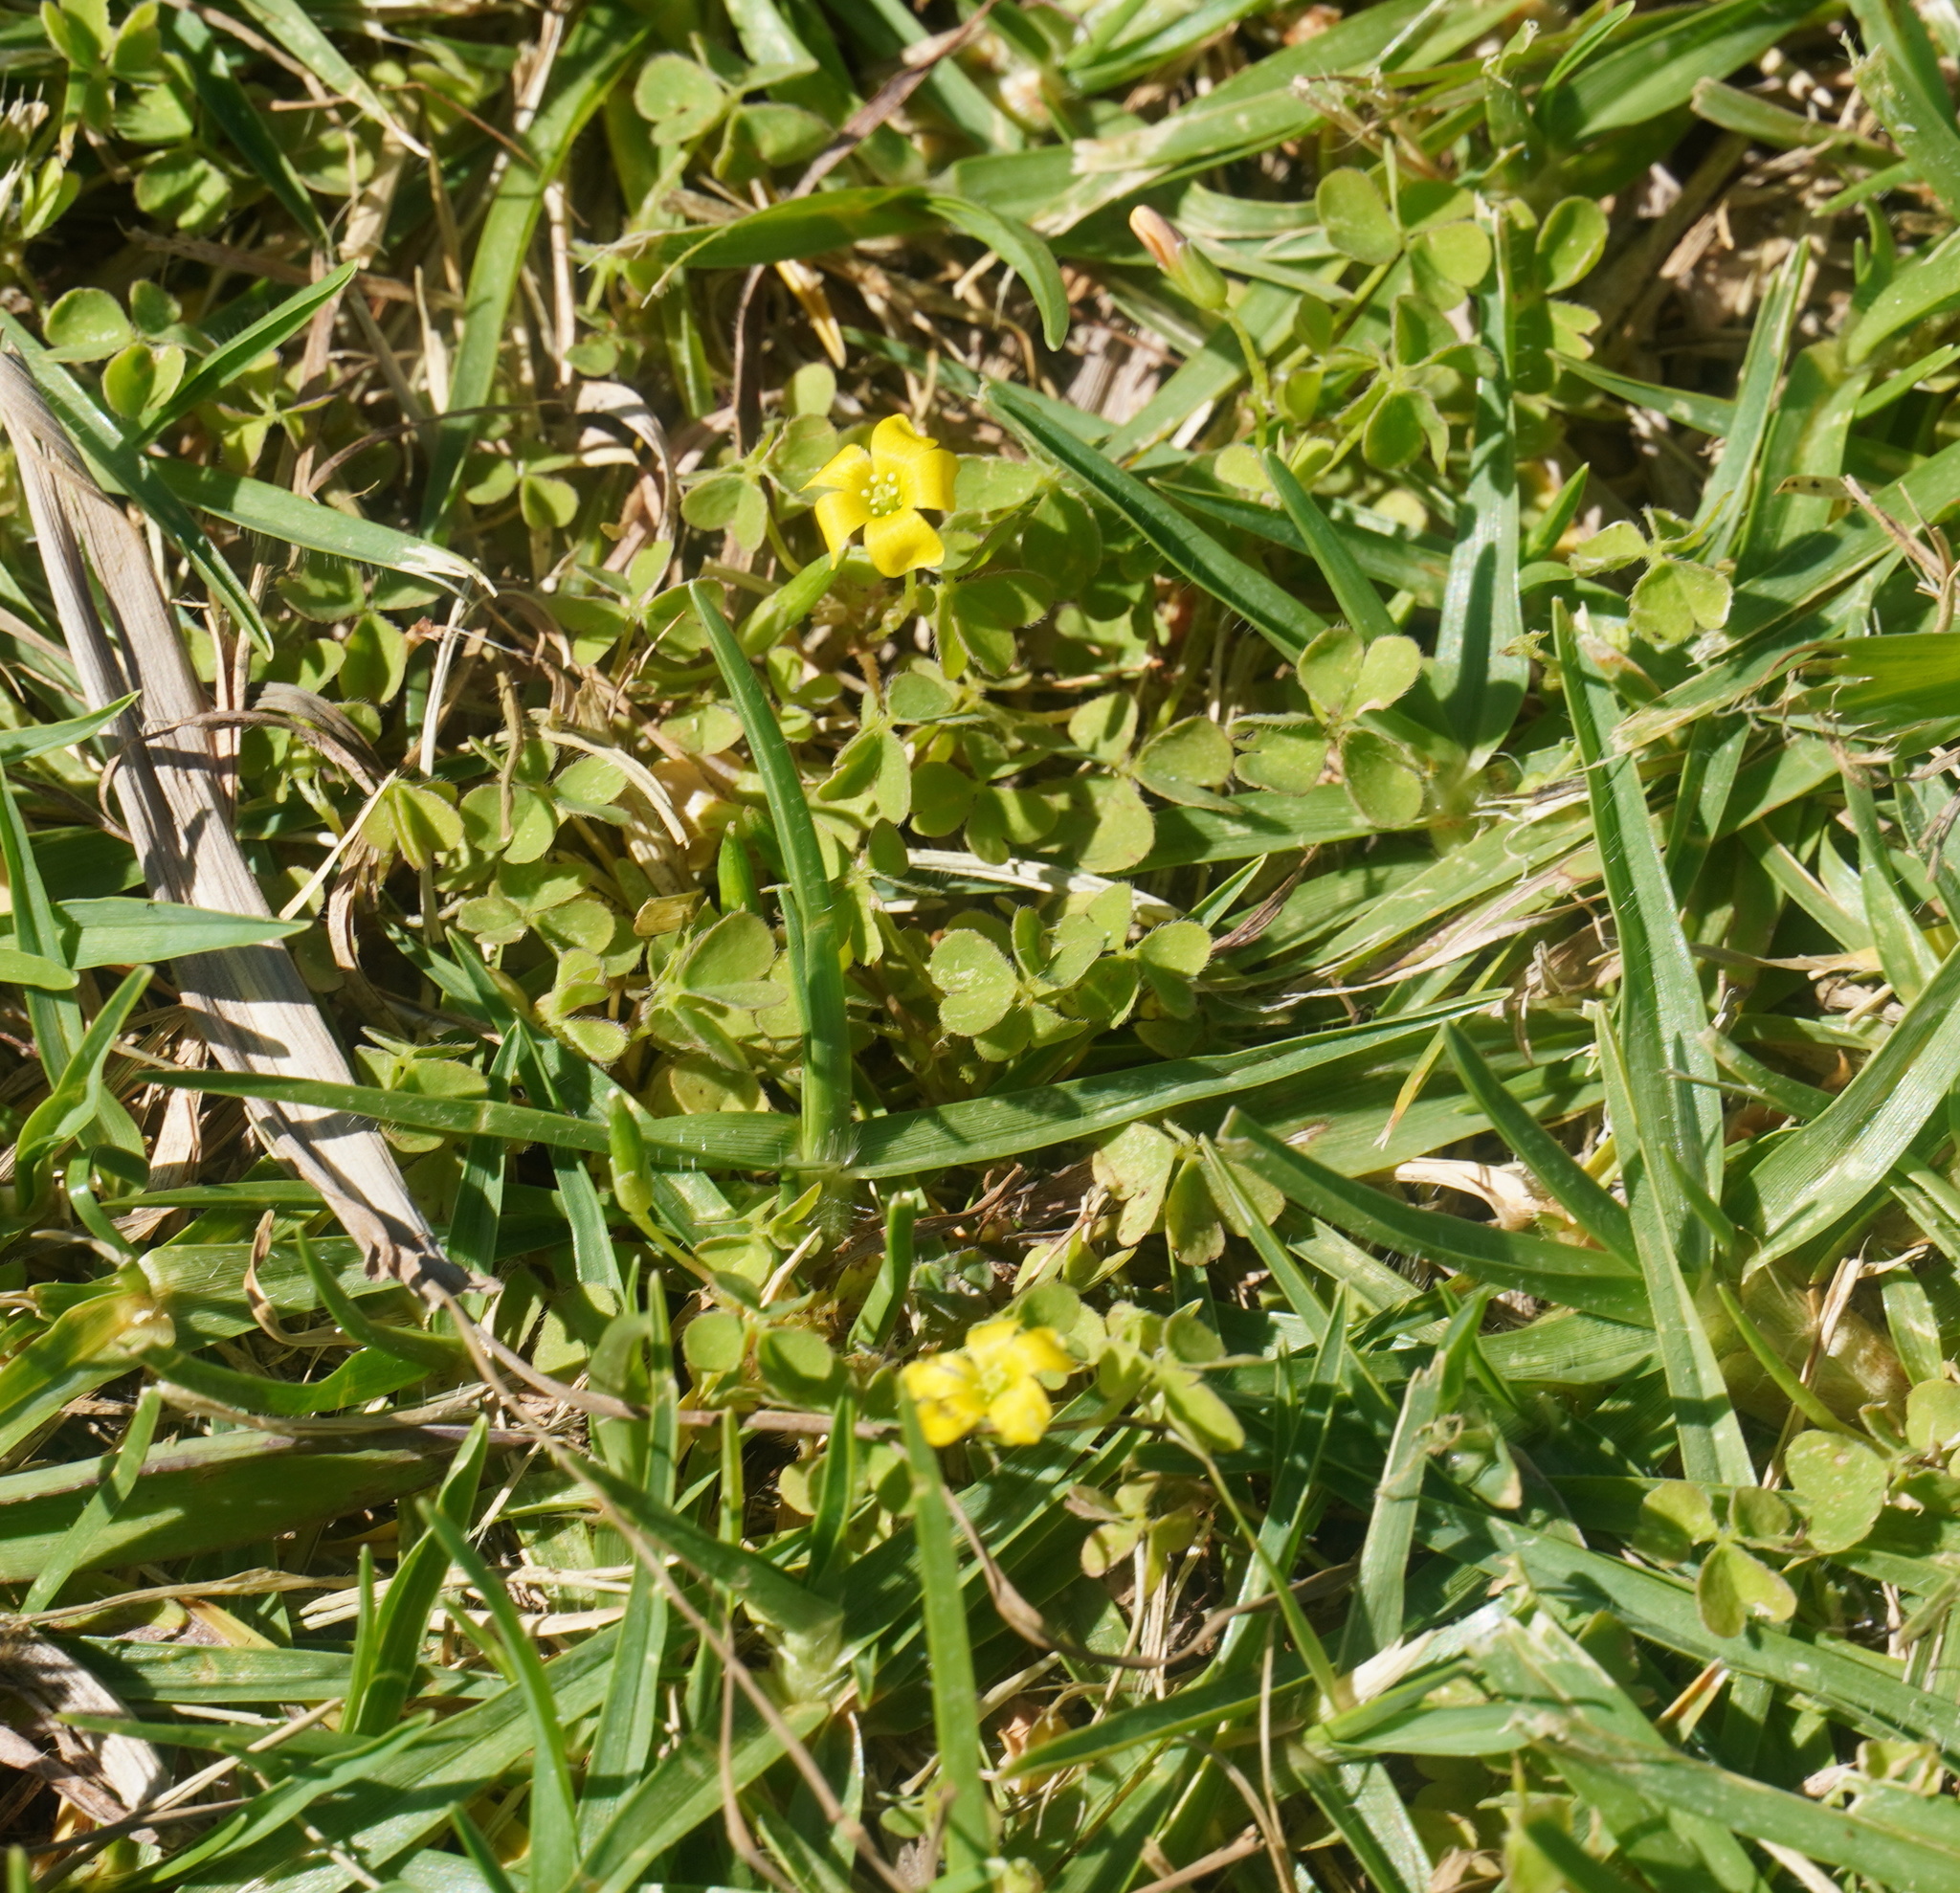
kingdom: Plantae
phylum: Tracheophyta
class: Magnoliopsida
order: Oxalidales
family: Oxalidaceae
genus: Oxalis
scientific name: Oxalis corniculata
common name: Procumbent yellow-sorrel
